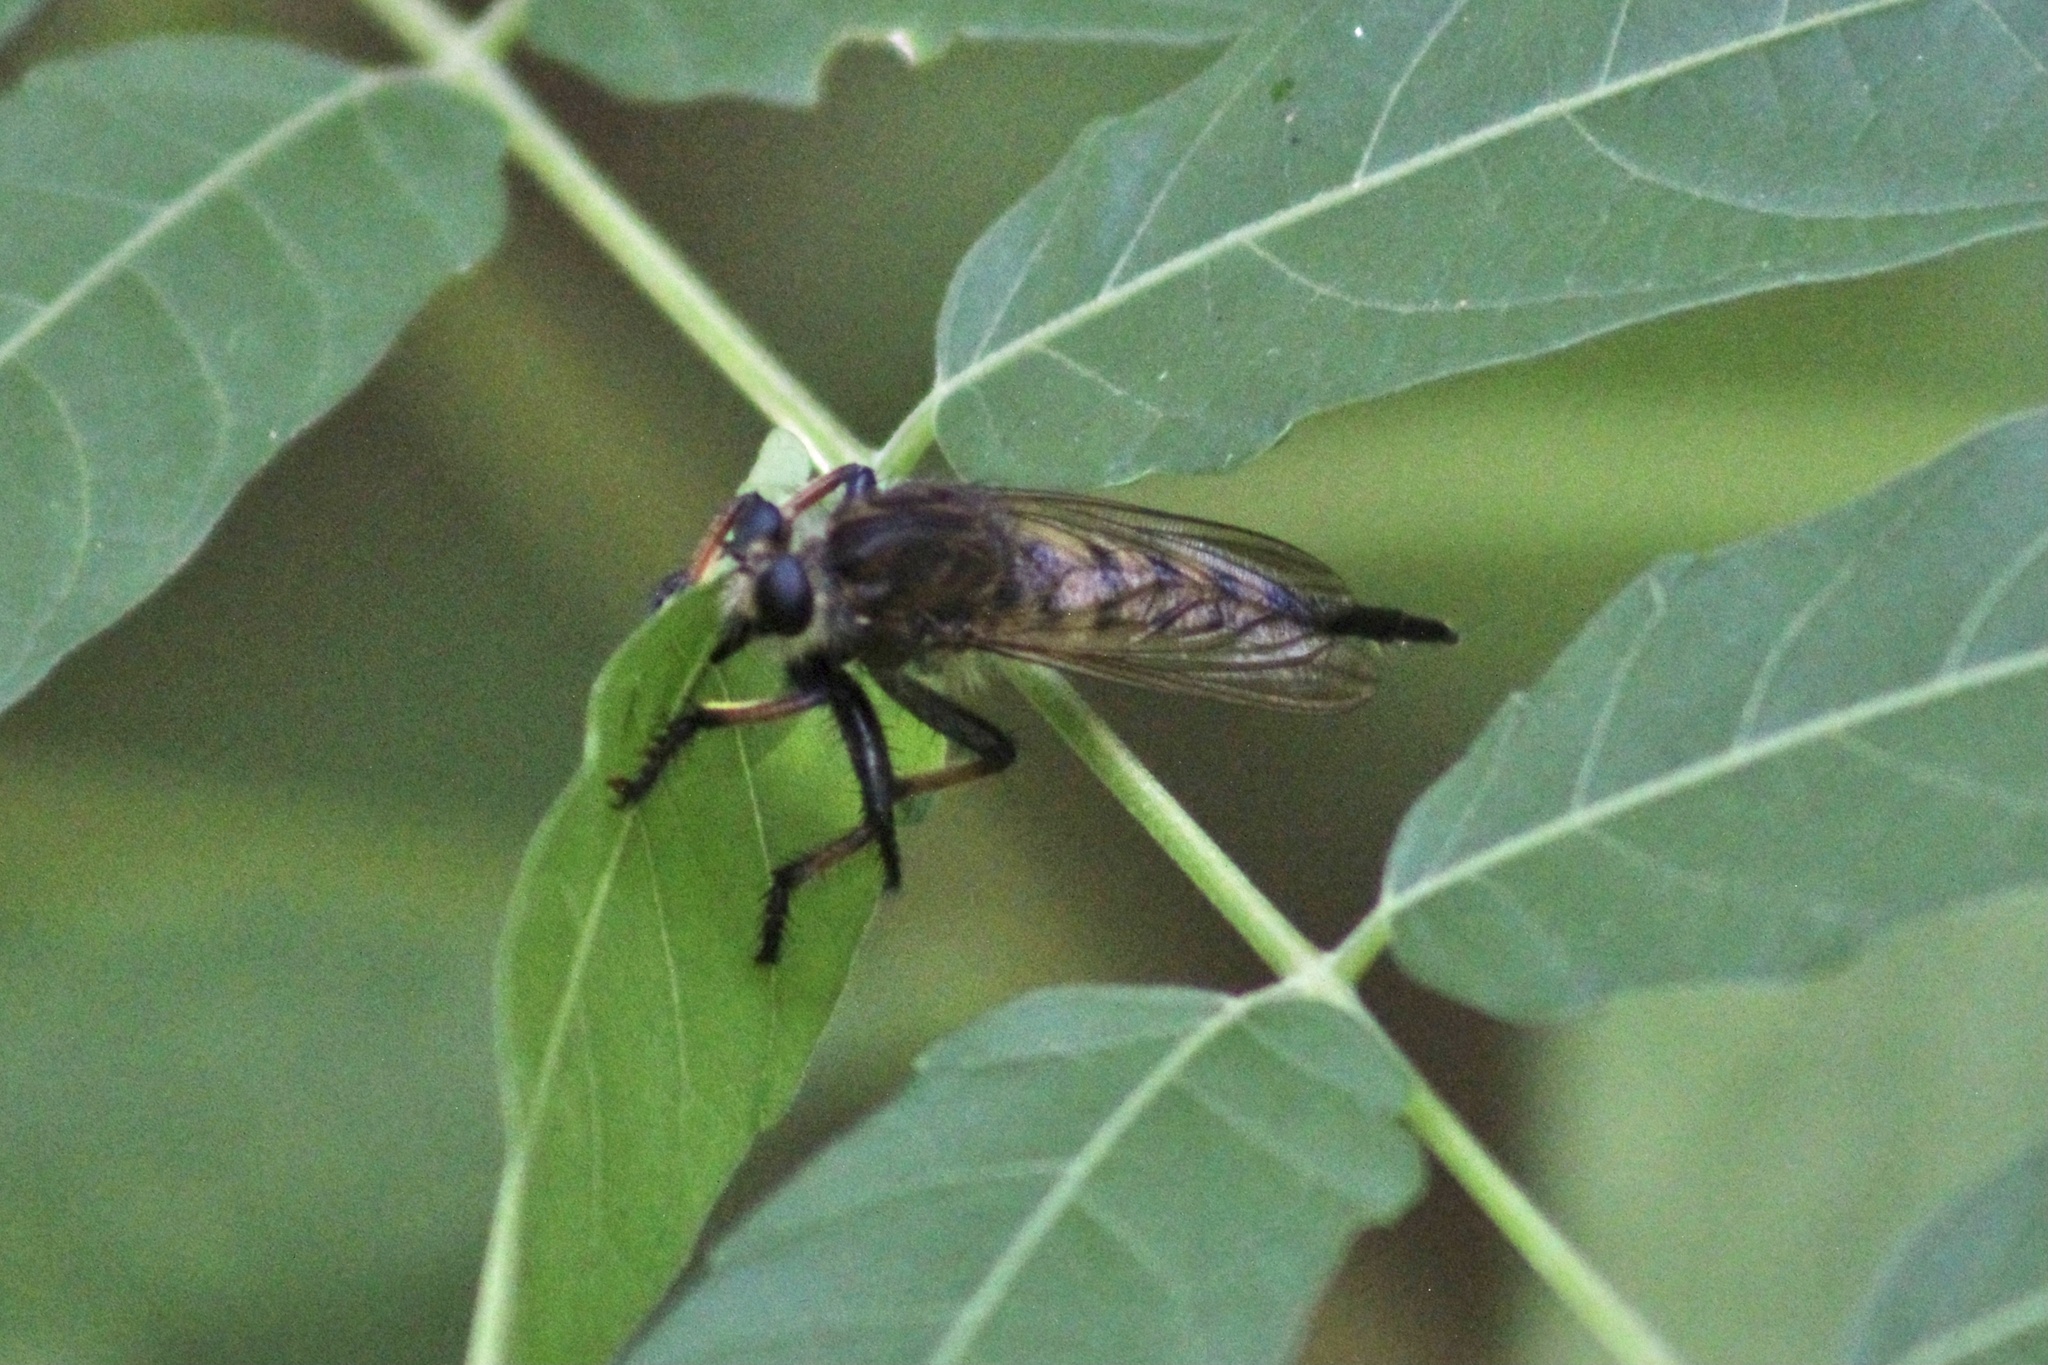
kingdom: Animalia
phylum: Arthropoda
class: Insecta
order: Diptera
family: Asilidae
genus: Promachus
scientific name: Promachus hinei
